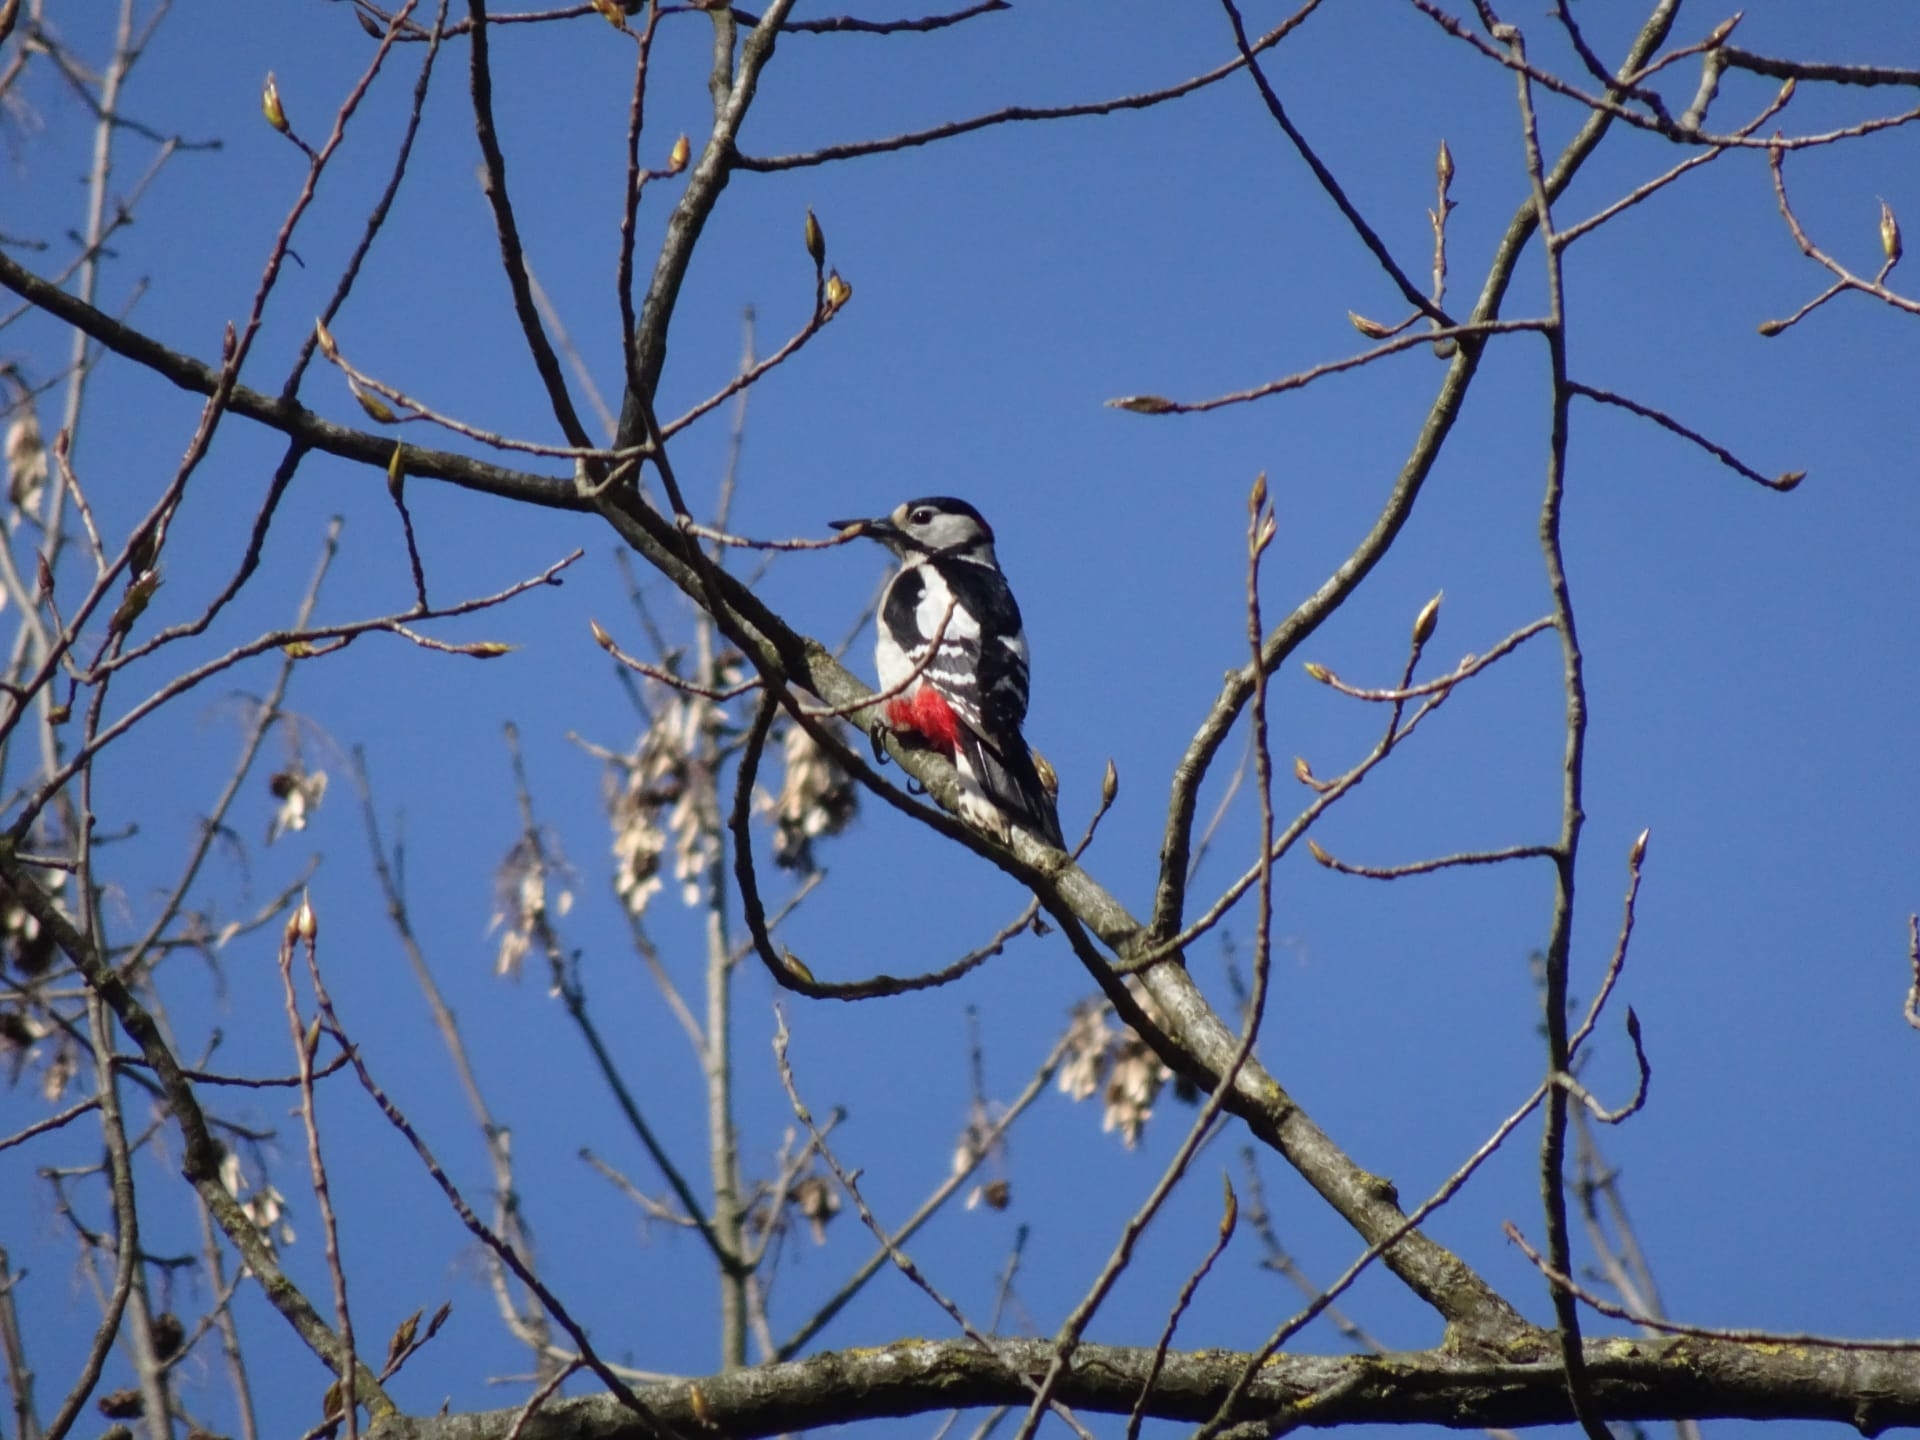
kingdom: Animalia
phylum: Chordata
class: Aves
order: Piciformes
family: Picidae
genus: Dendrocopos
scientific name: Dendrocopos major
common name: Great spotted woodpecker
